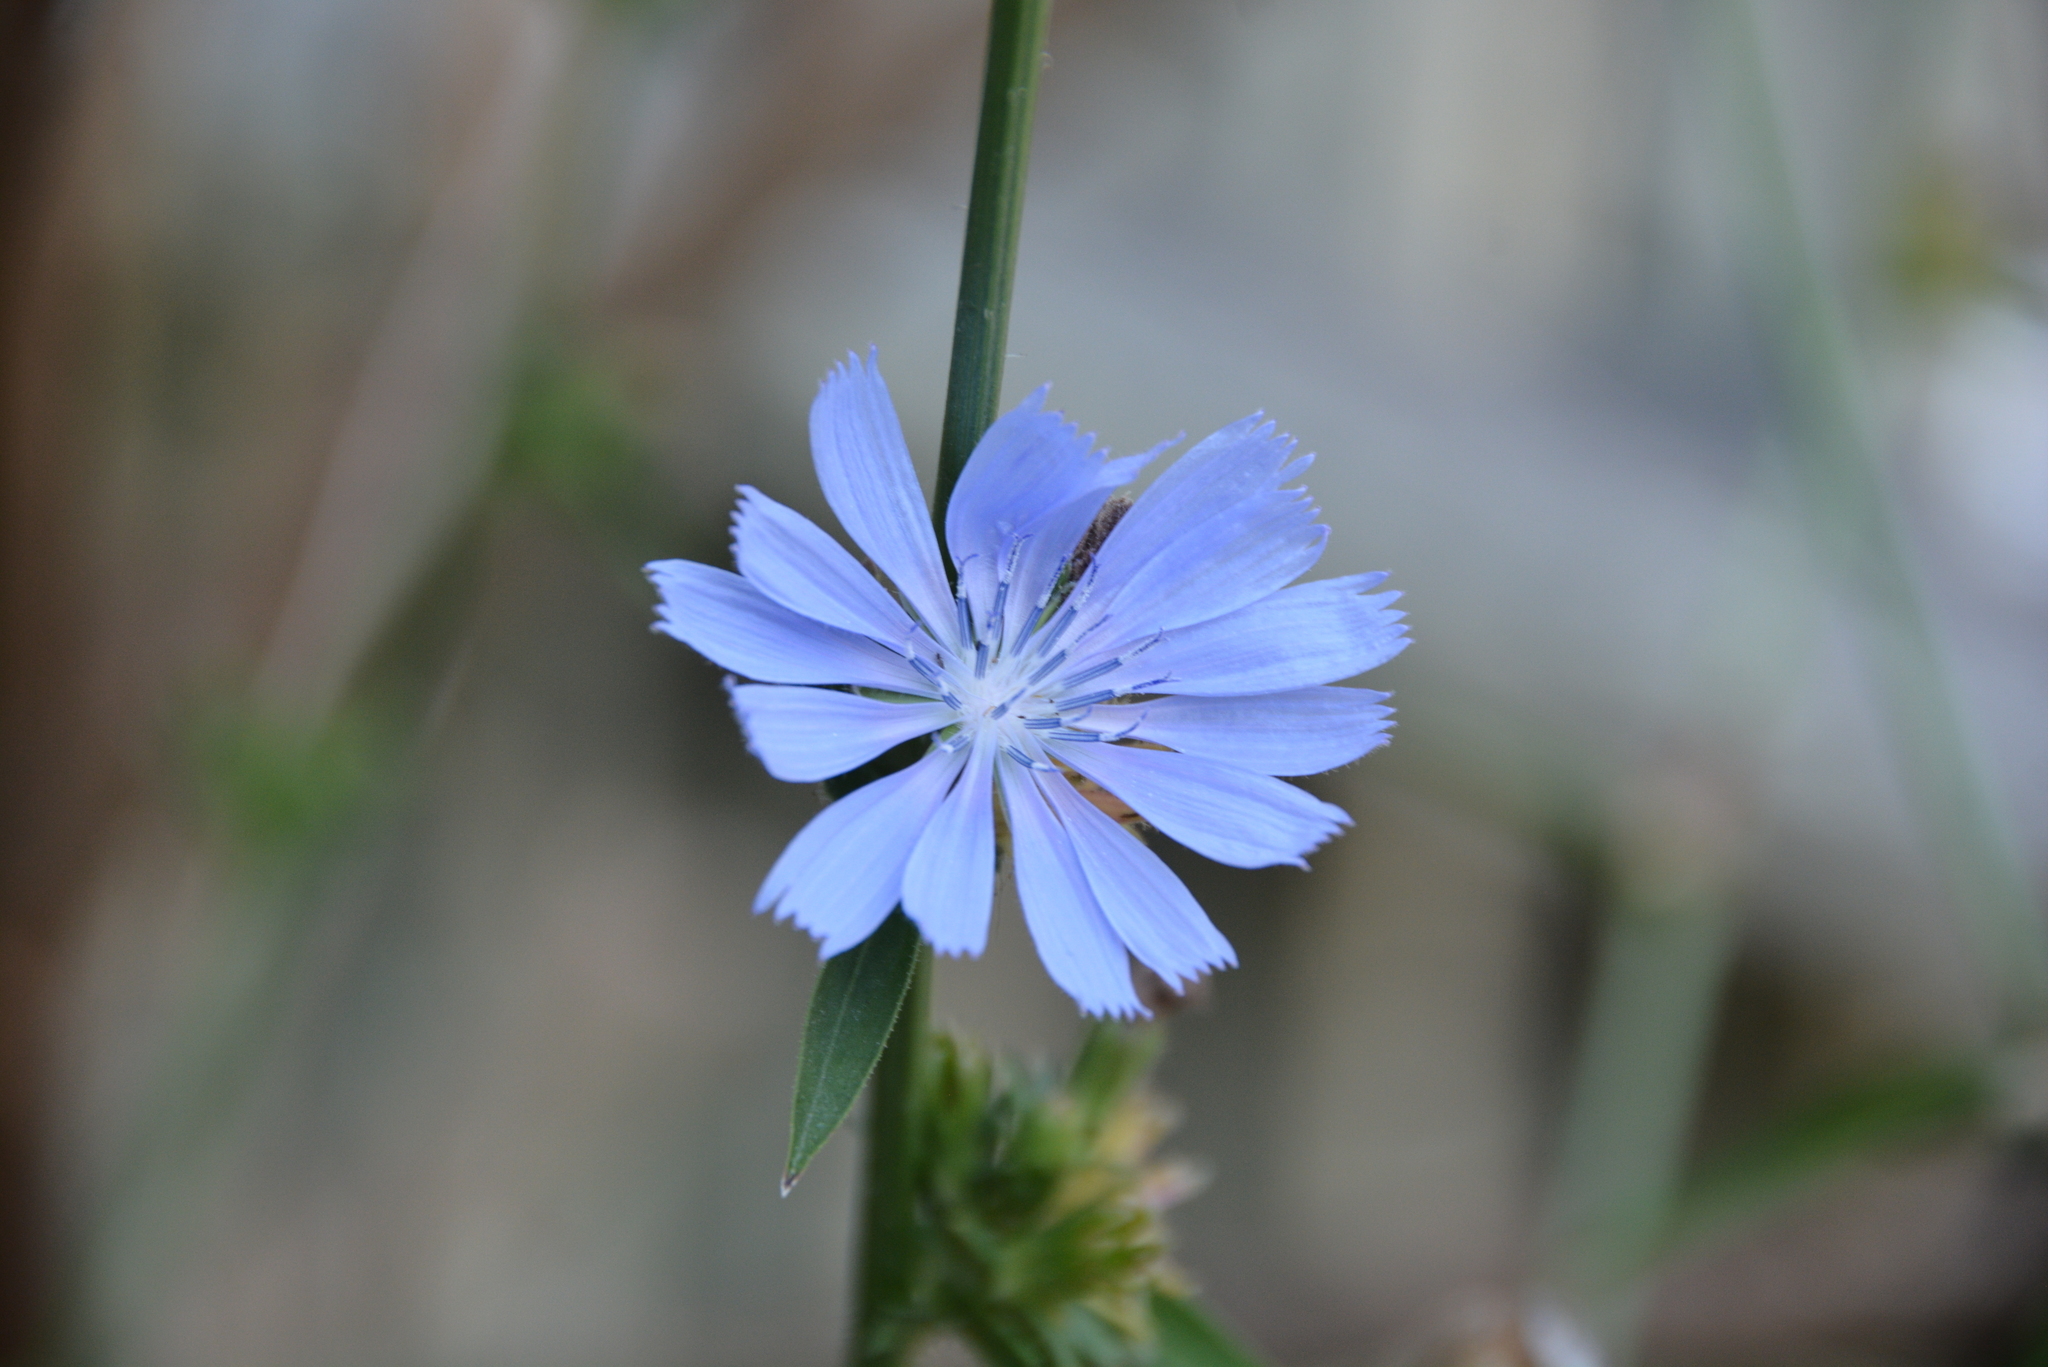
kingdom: Plantae
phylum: Tracheophyta
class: Magnoliopsida
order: Asterales
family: Asteraceae
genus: Cichorium
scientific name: Cichorium intybus
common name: Chicory
